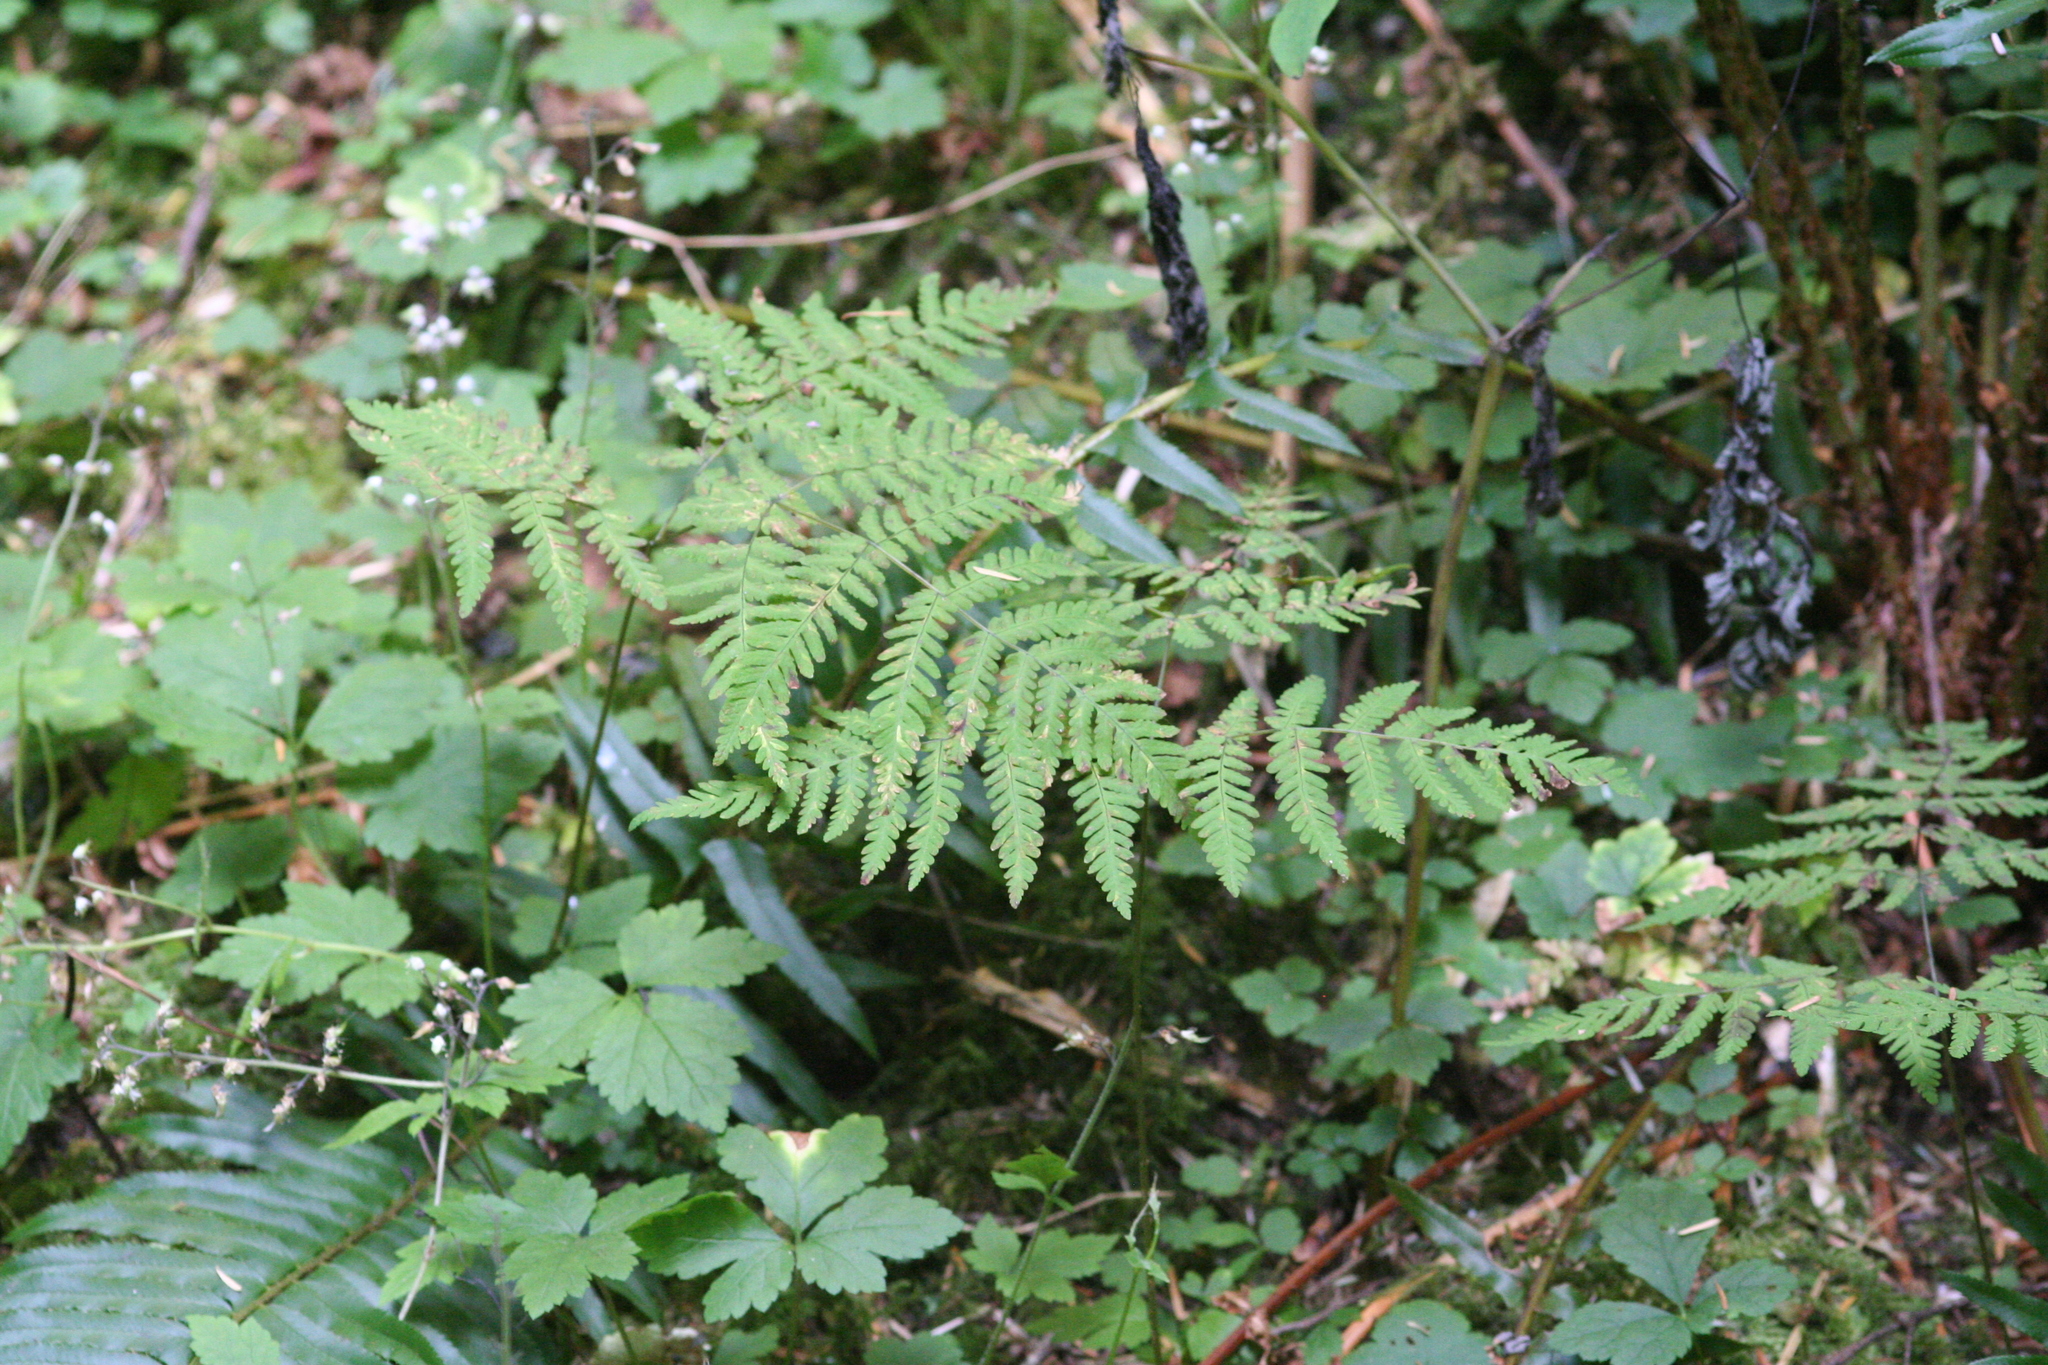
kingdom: Plantae
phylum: Tracheophyta
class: Polypodiopsida
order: Polypodiales
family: Cystopteridaceae
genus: Gymnocarpium
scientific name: Gymnocarpium disjunctum
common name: Western oak fern
